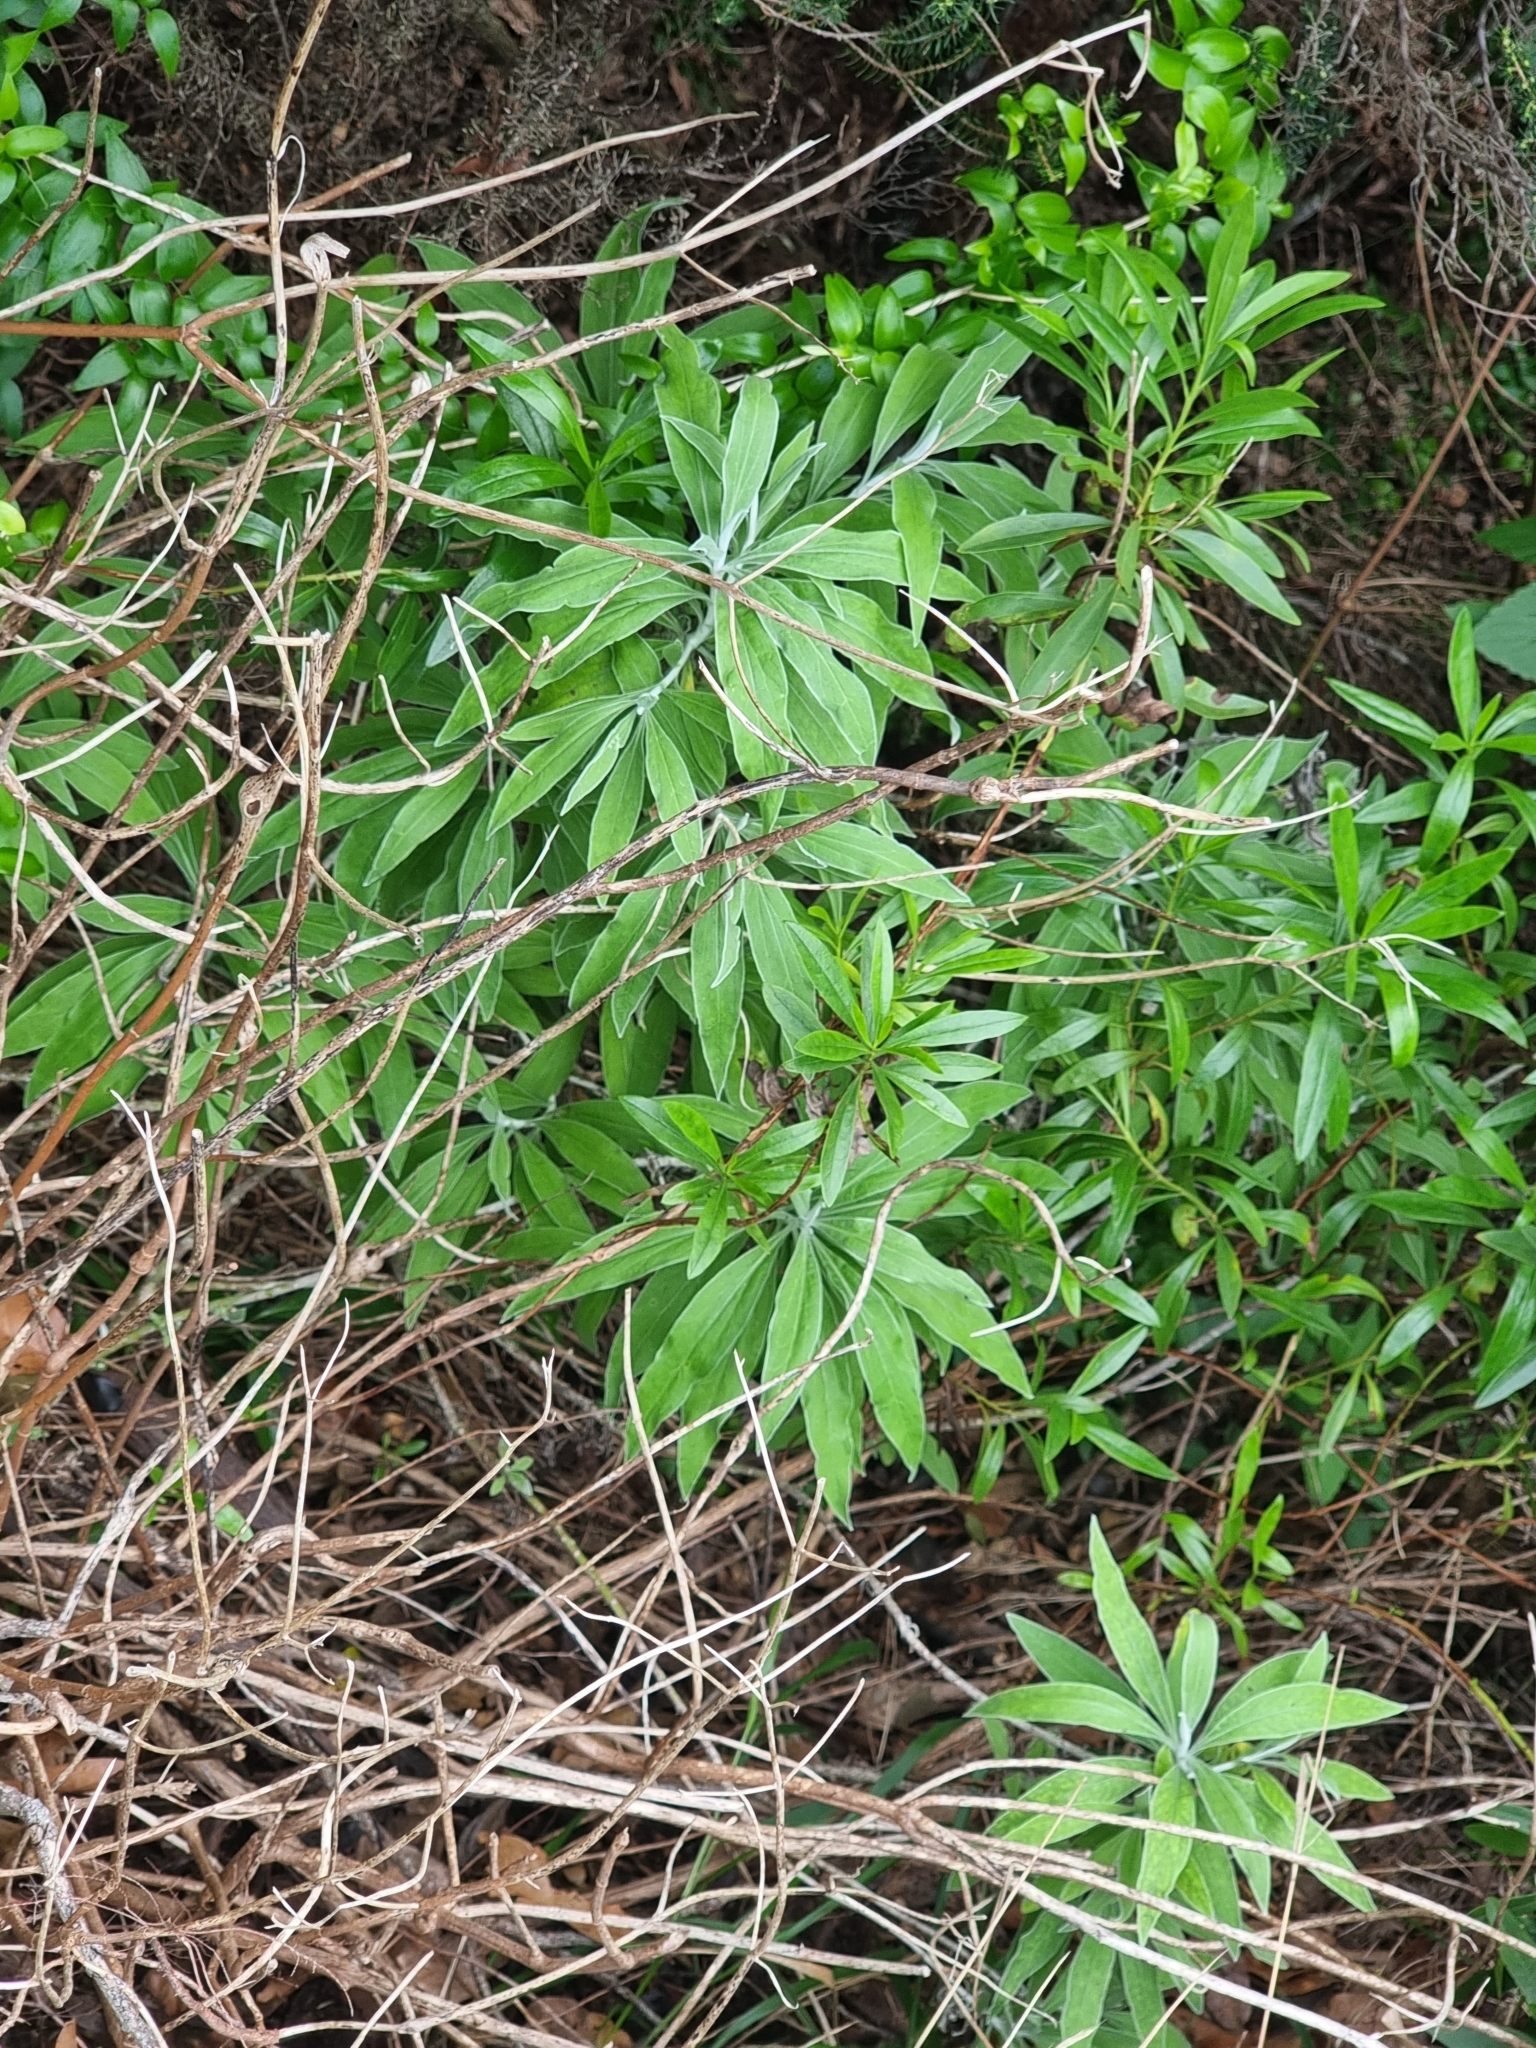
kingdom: Plantae
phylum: Tracheophyta
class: Magnoliopsida
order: Asterales
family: Asteraceae
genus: Helichrysum
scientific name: Helichrysum melaleucum
